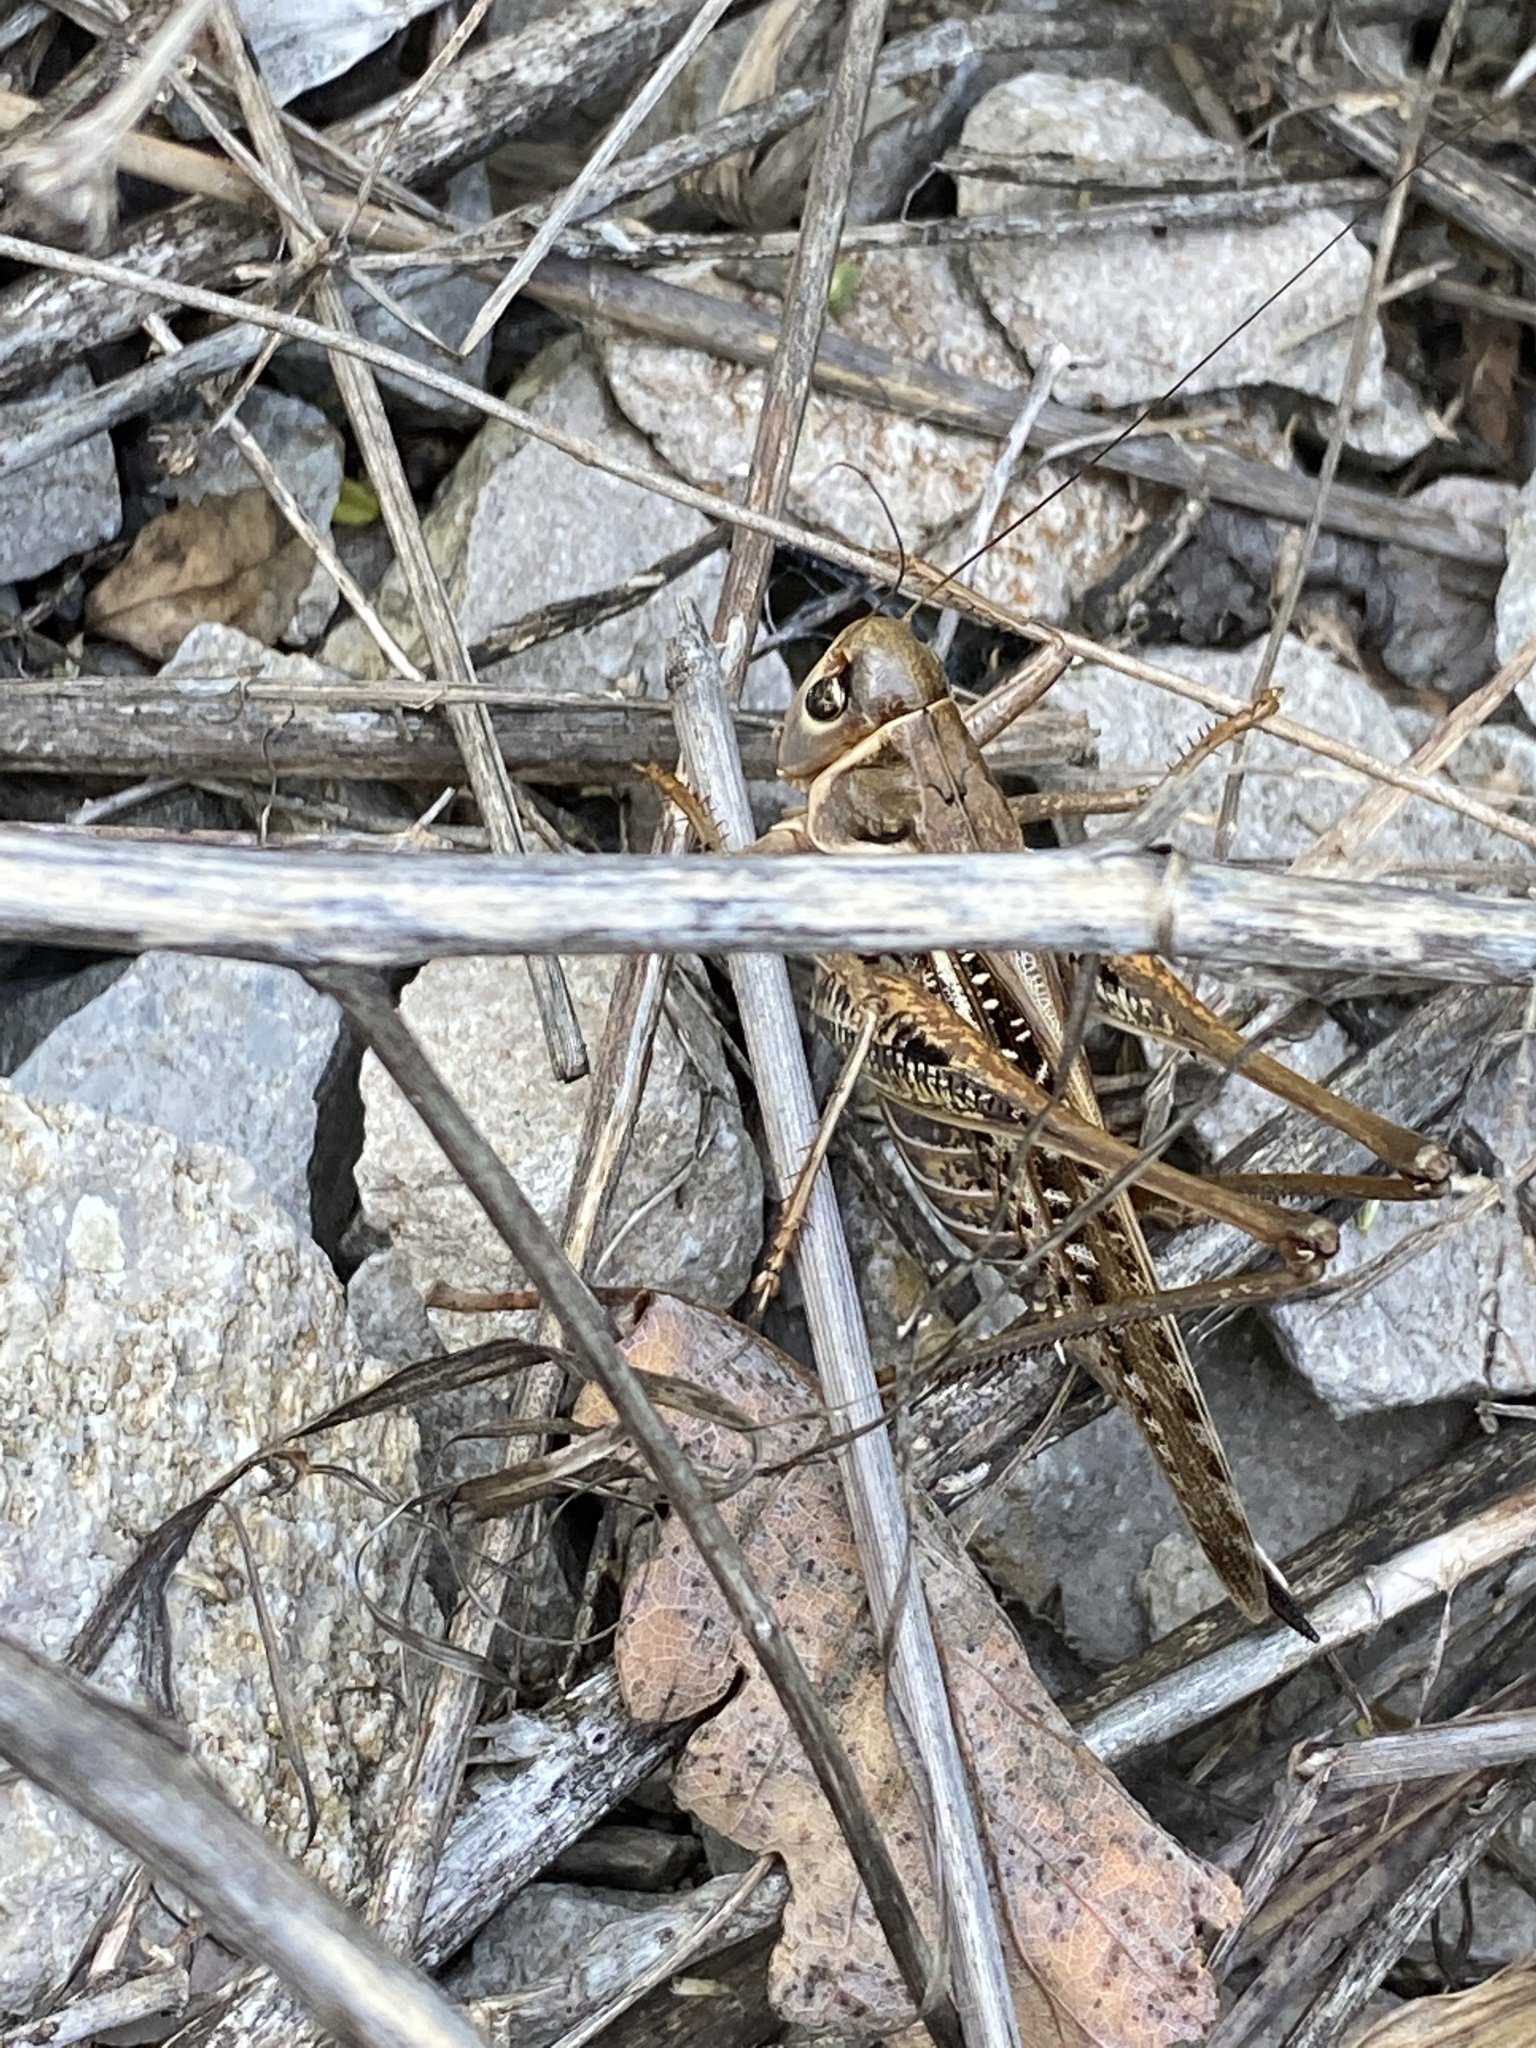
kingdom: Animalia
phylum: Arthropoda
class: Insecta
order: Orthoptera
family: Tettigoniidae
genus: Decticus
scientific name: Decticus albifrons
